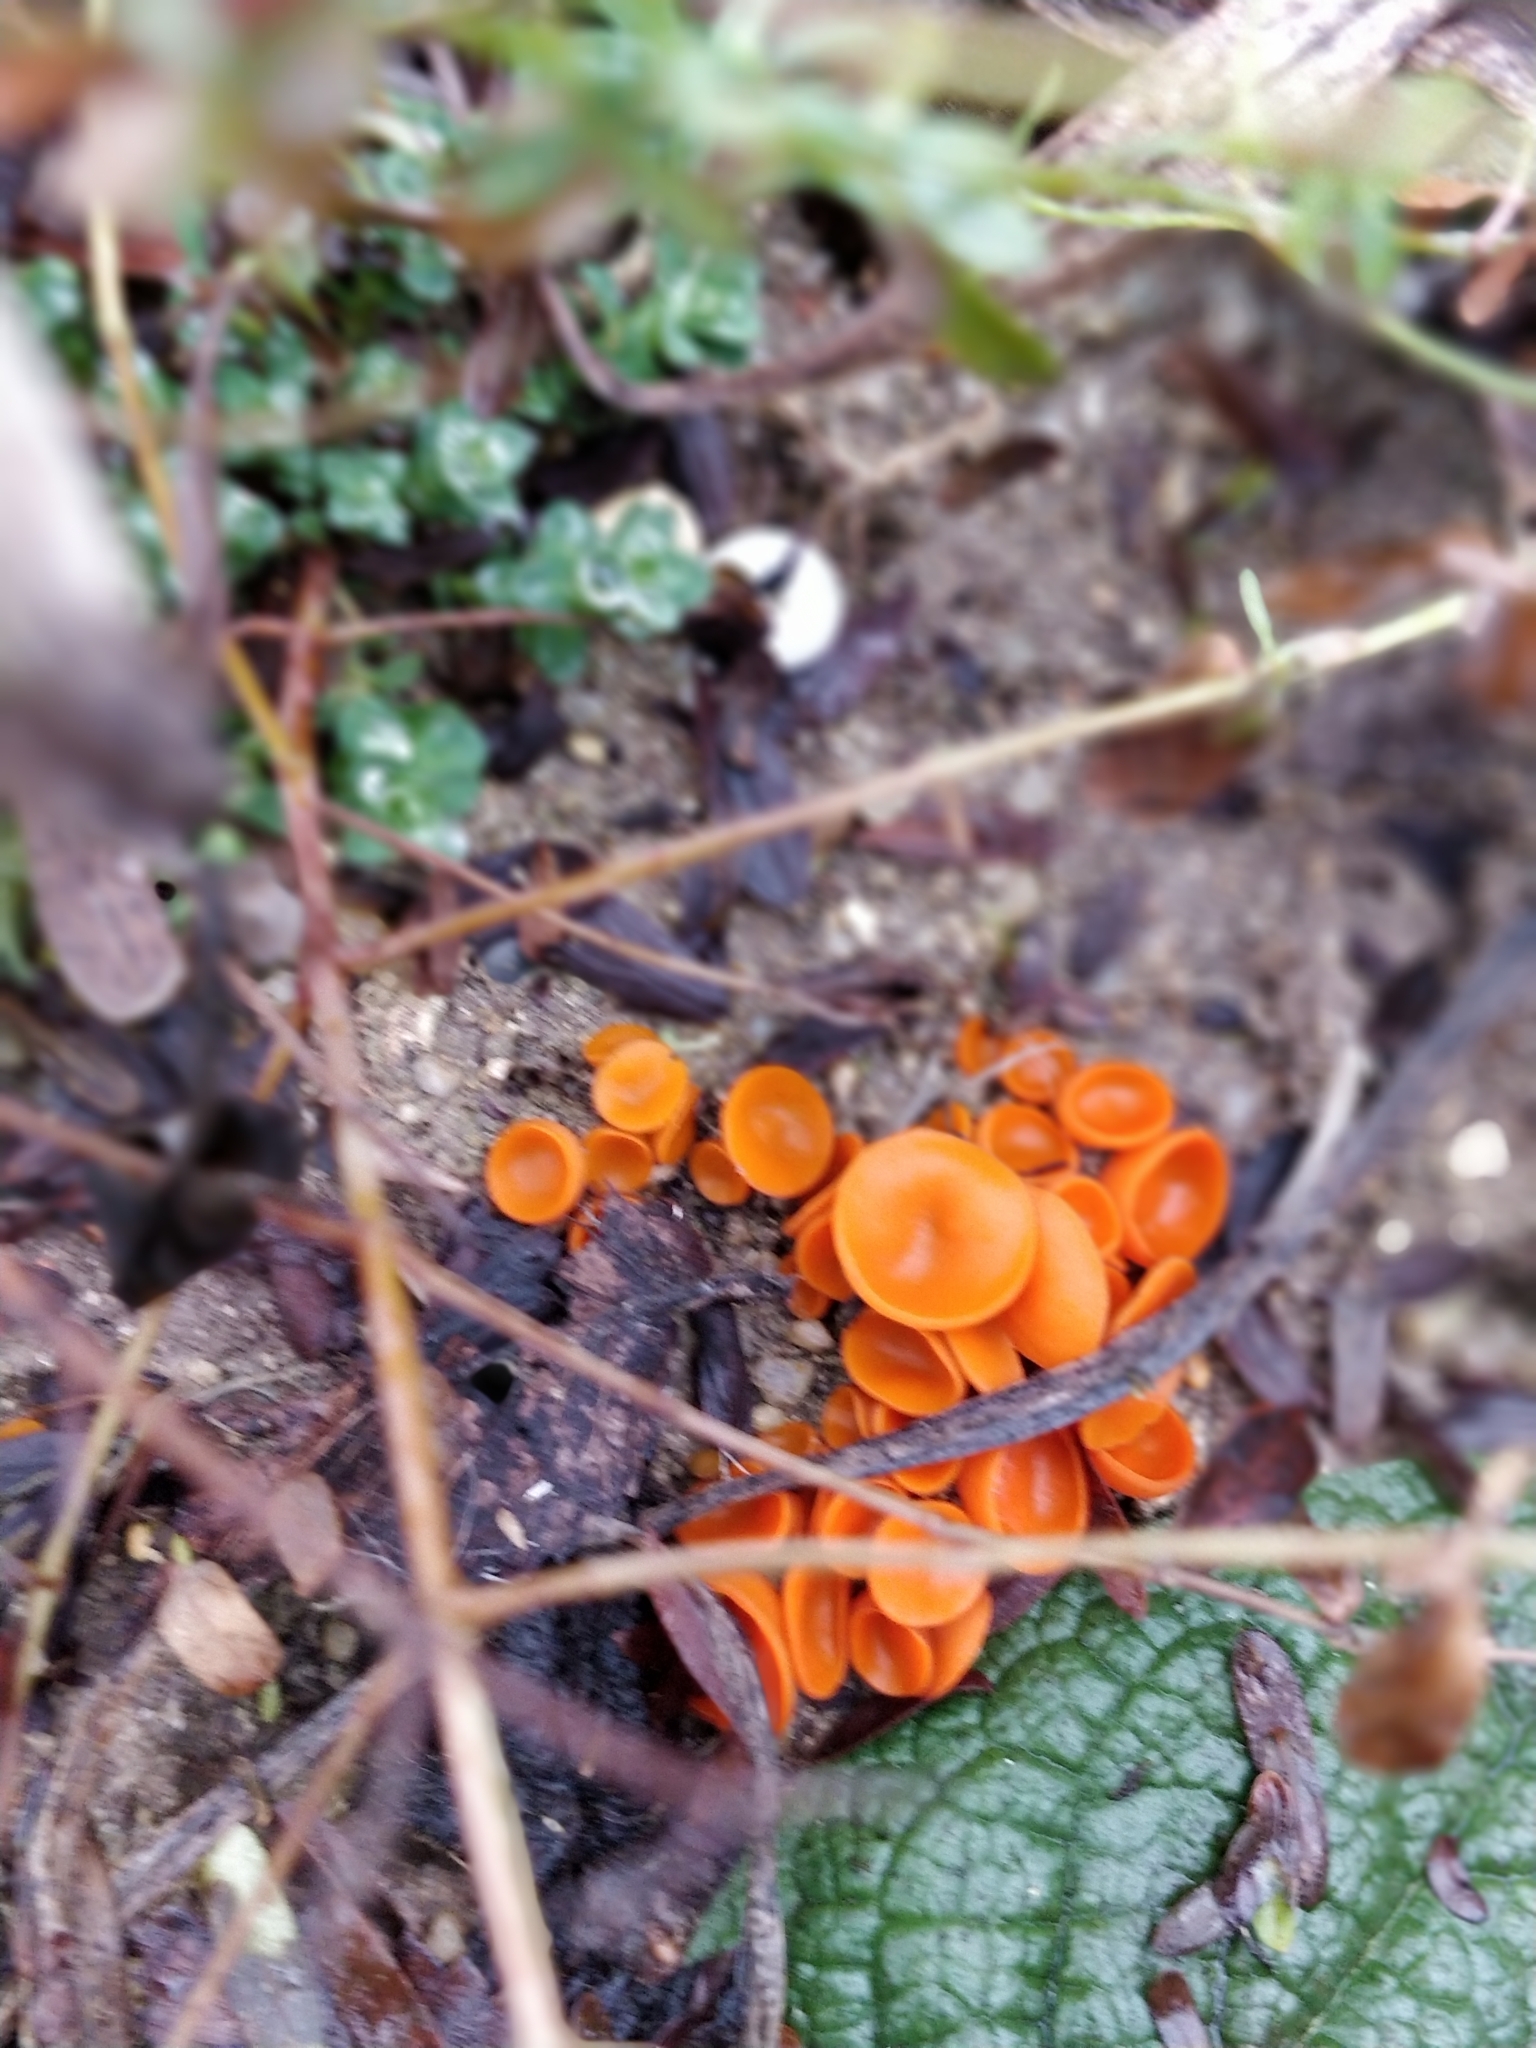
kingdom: Fungi
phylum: Ascomycota
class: Pezizomycetes
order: Pezizales
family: Pyronemataceae
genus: Aleuria
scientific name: Aleuria aurantia
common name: Orange peel fungus
